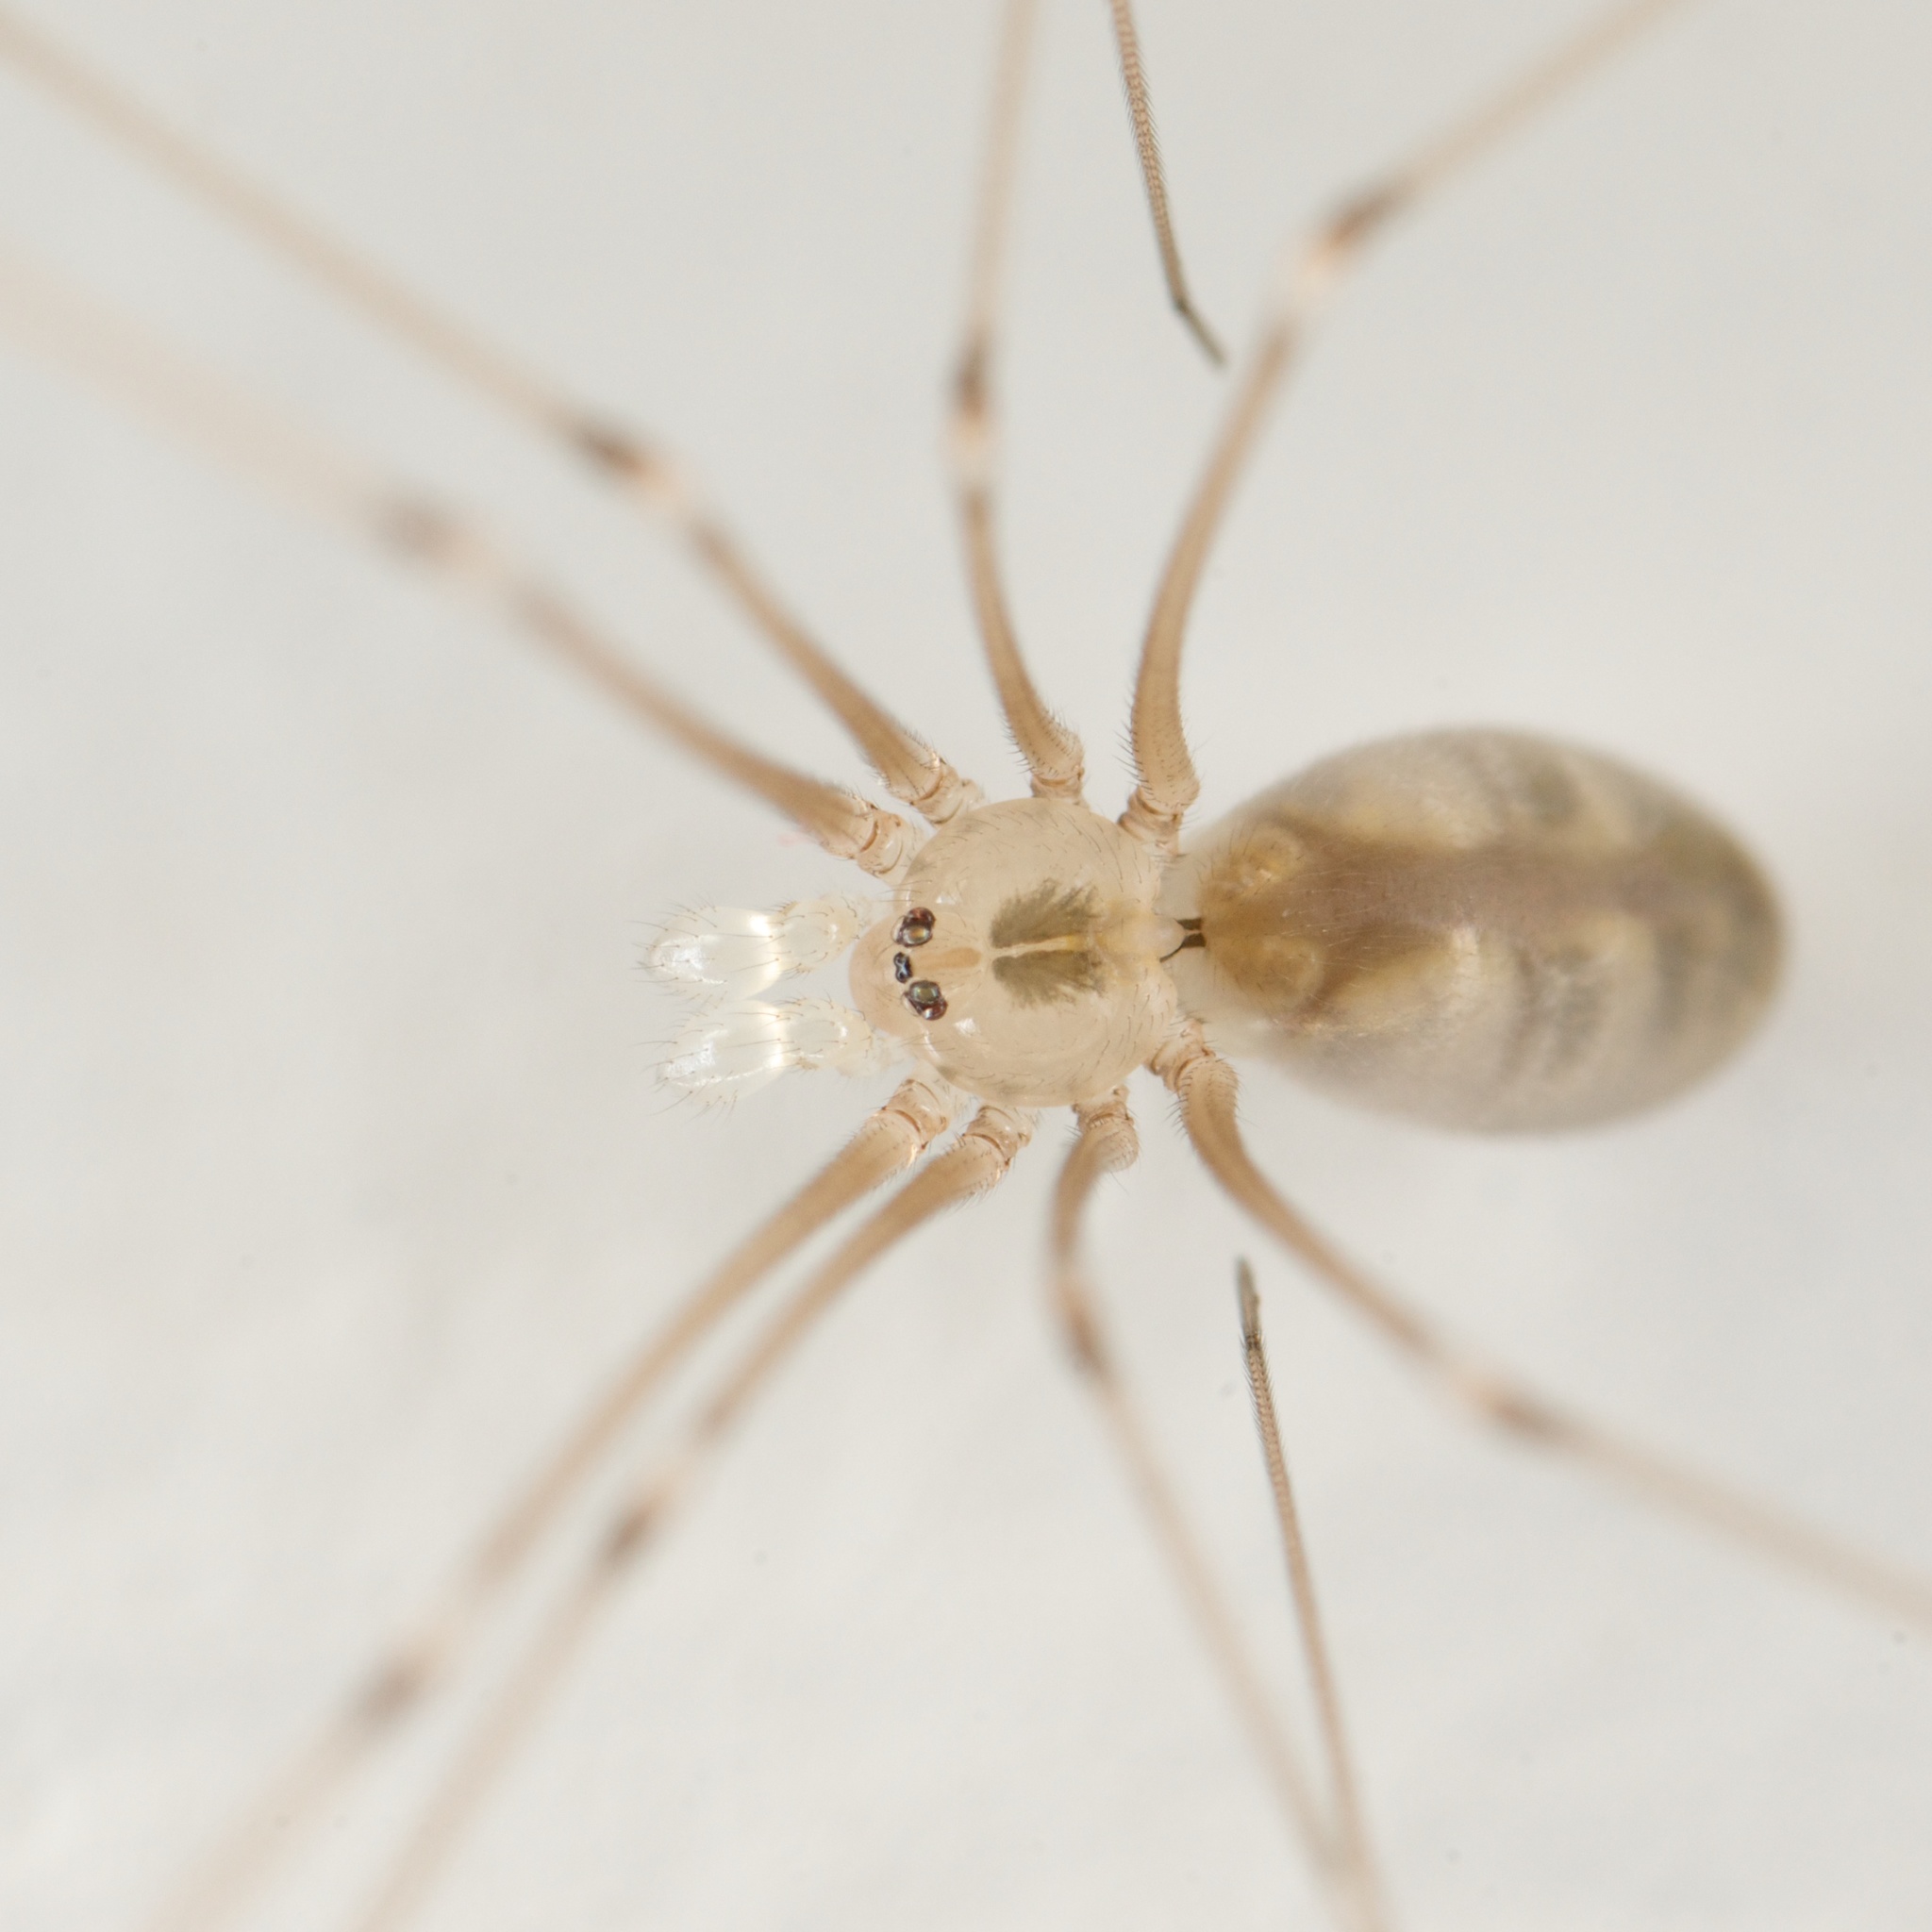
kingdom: Animalia
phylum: Arthropoda
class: Arachnida
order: Araneae
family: Pholcidae
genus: Pholcus
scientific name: Pholcus phalangioides
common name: Longbodied cellar spider
